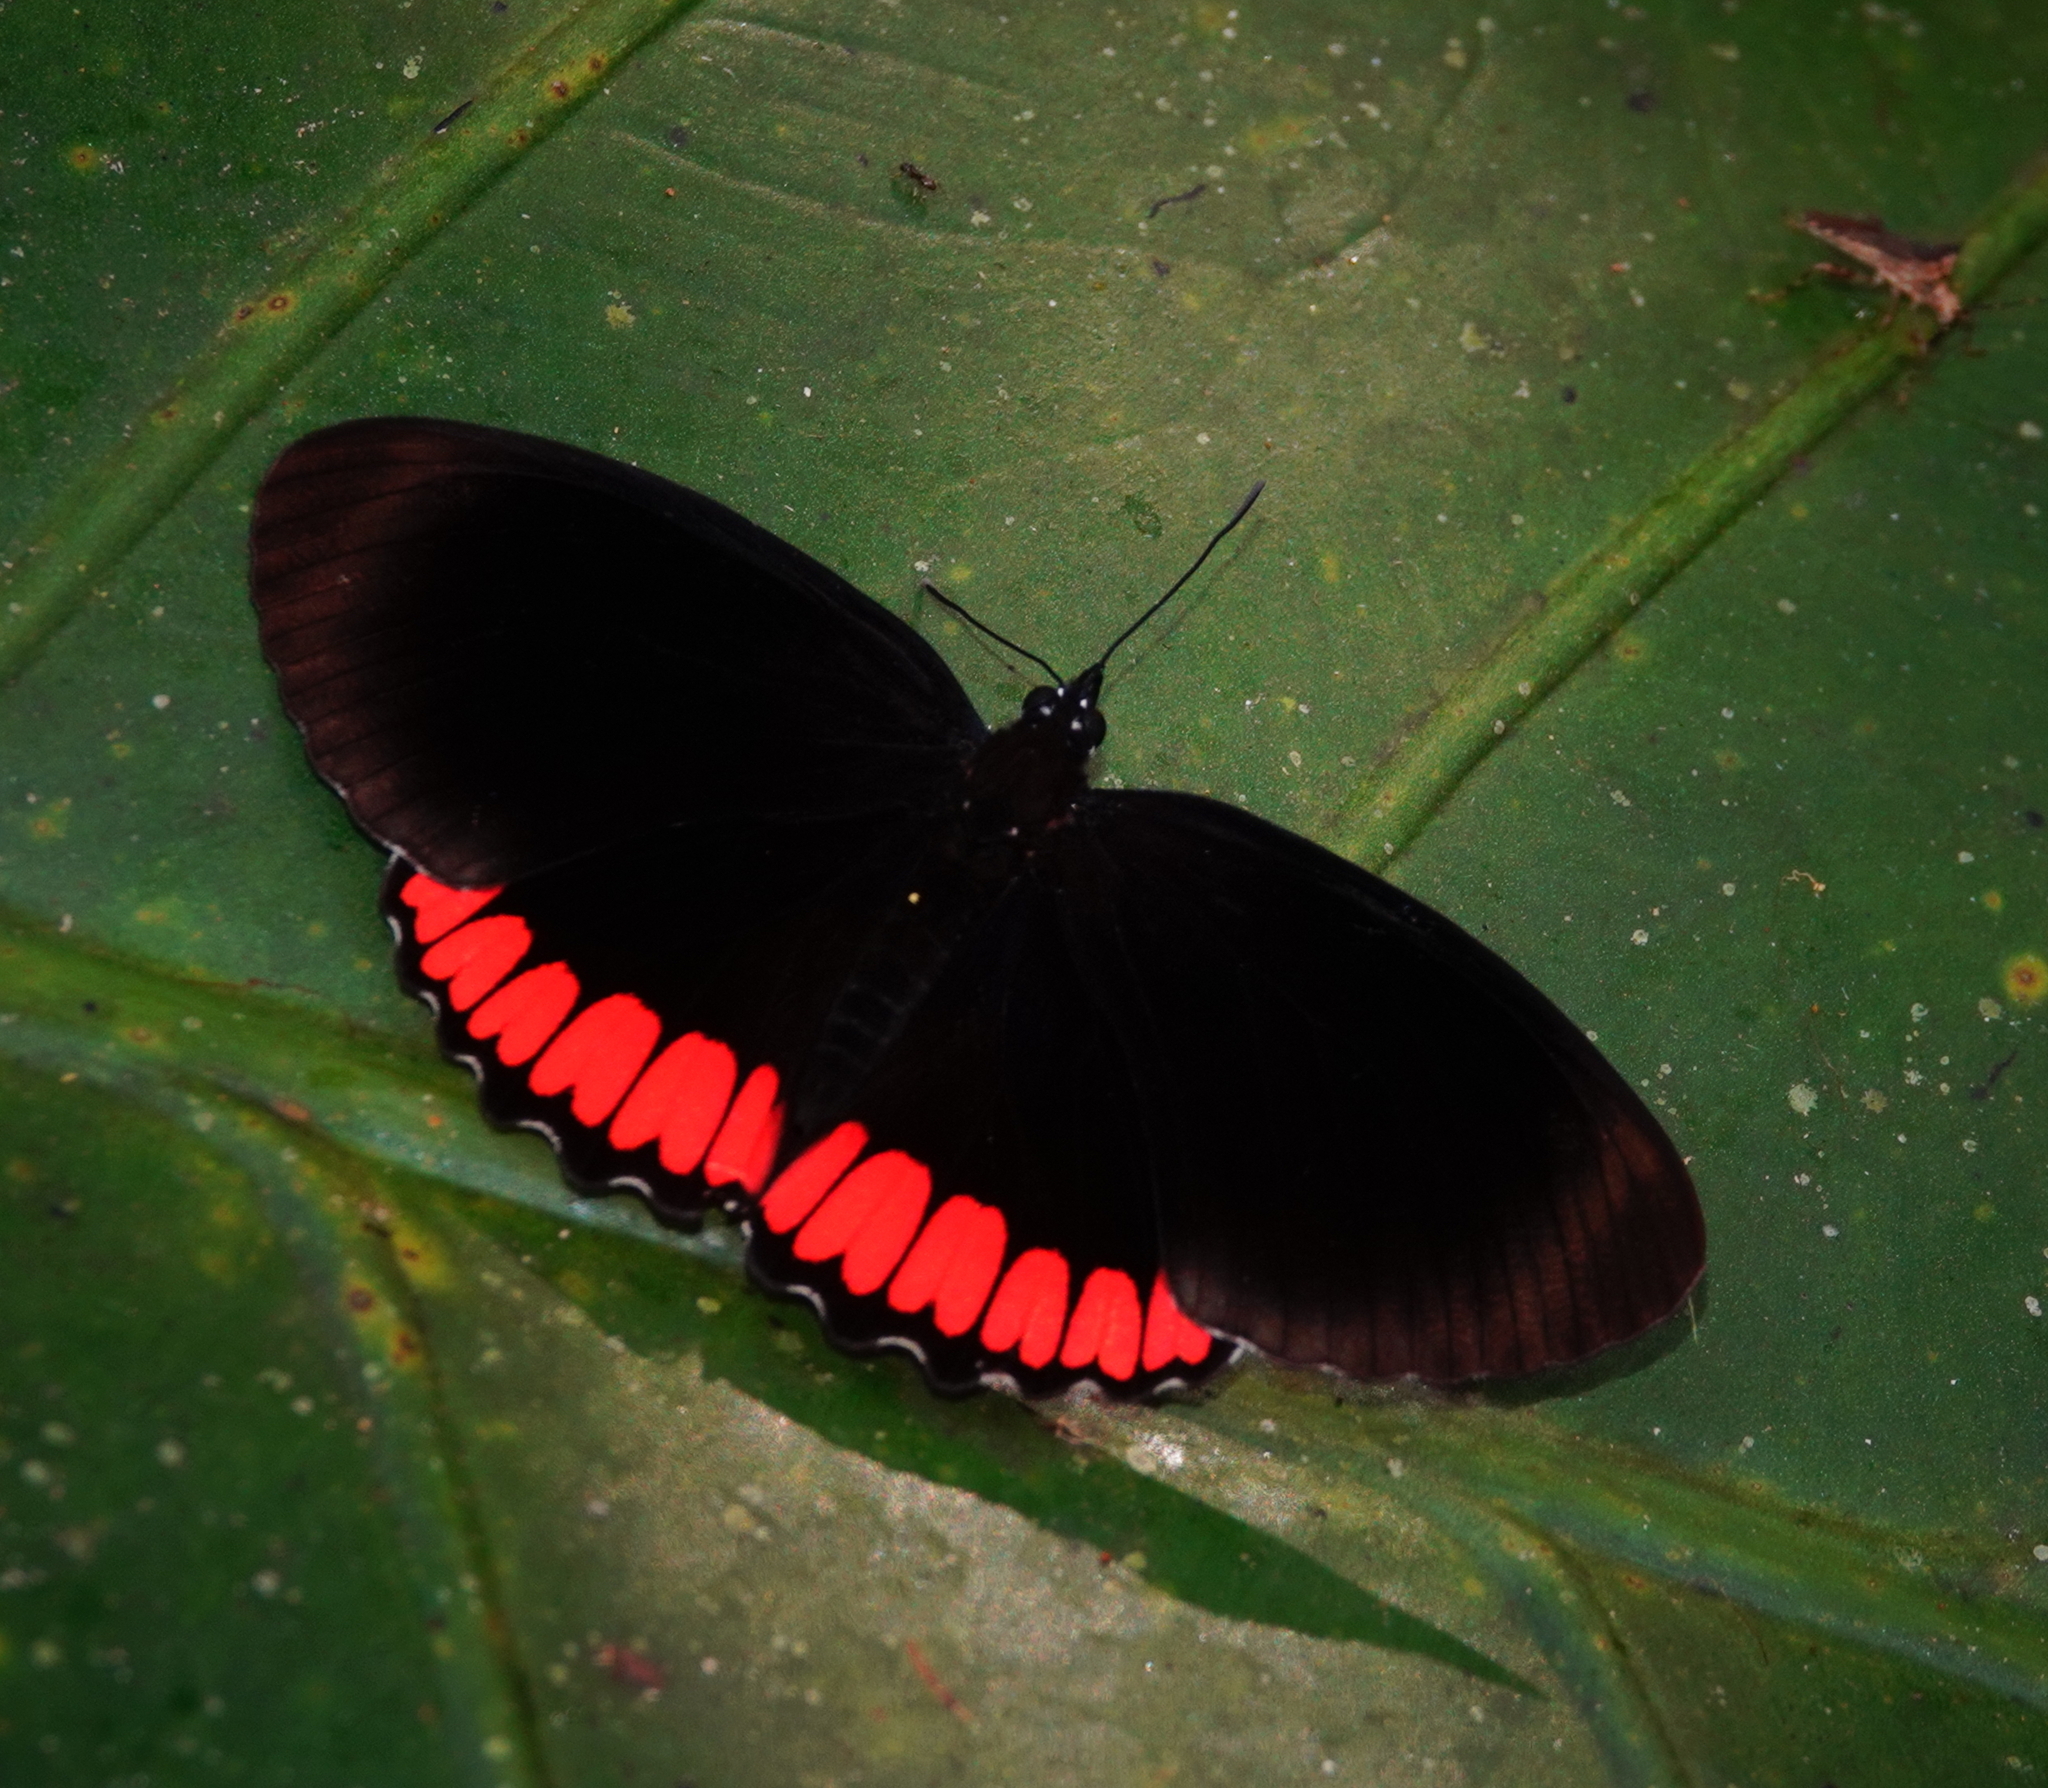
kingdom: Animalia
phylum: Arthropoda
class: Insecta
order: Lepidoptera
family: Sesiidae
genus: Sesia
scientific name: Sesia Biblis hyperia
